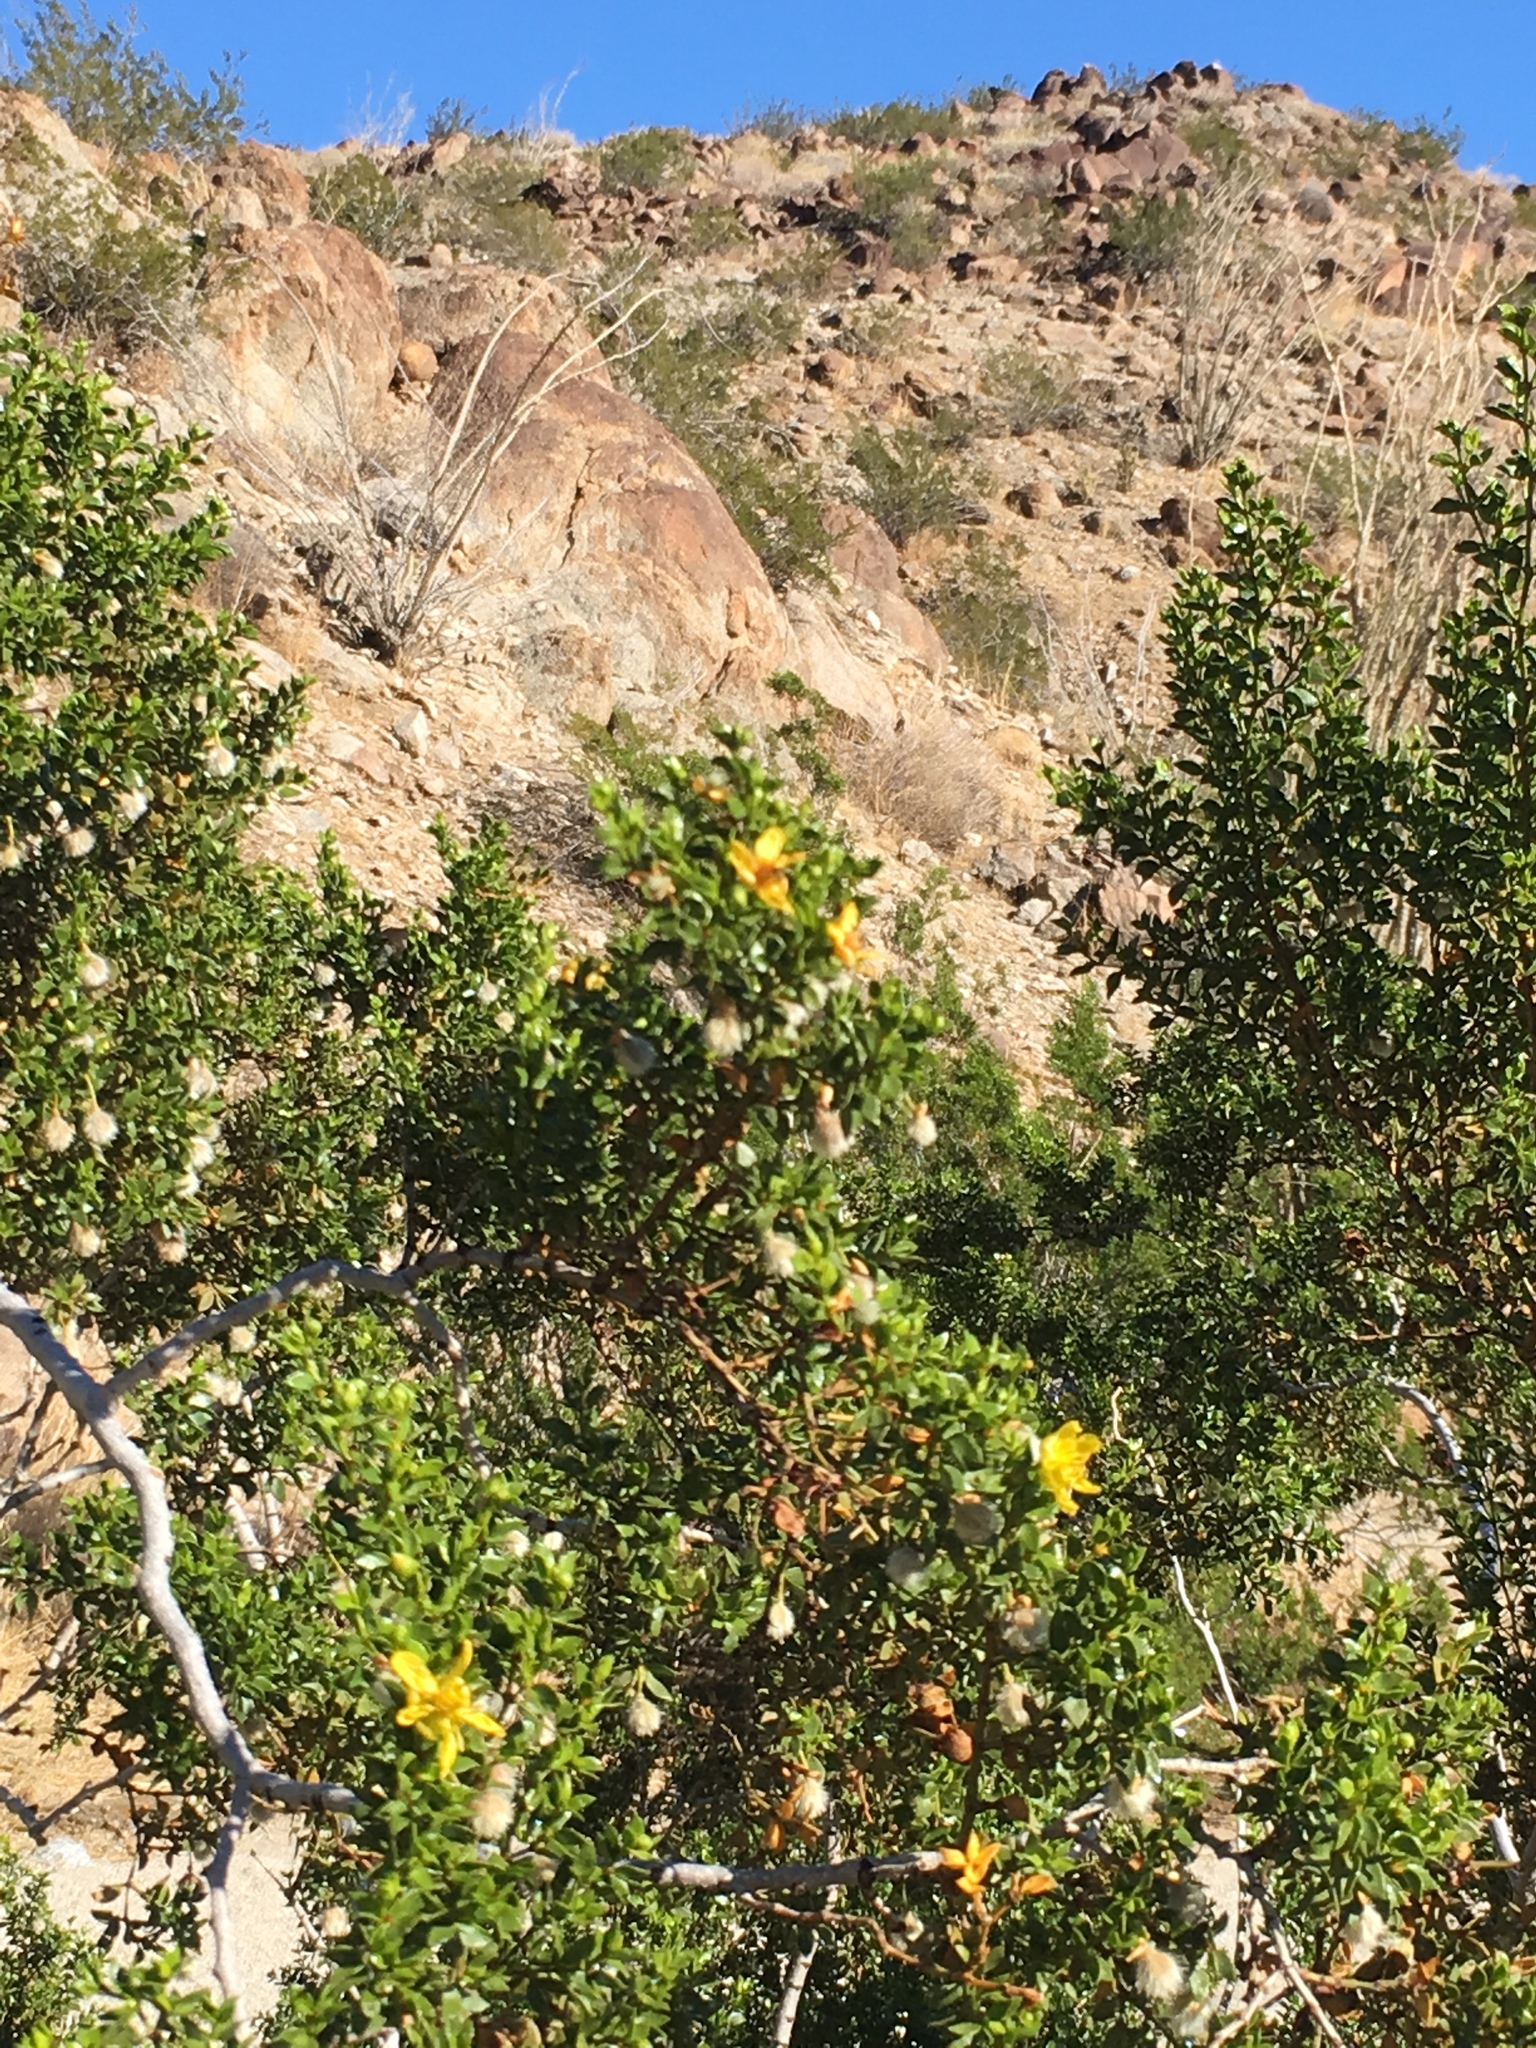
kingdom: Plantae
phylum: Tracheophyta
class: Magnoliopsida
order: Zygophyllales
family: Zygophyllaceae
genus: Larrea
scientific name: Larrea tridentata
